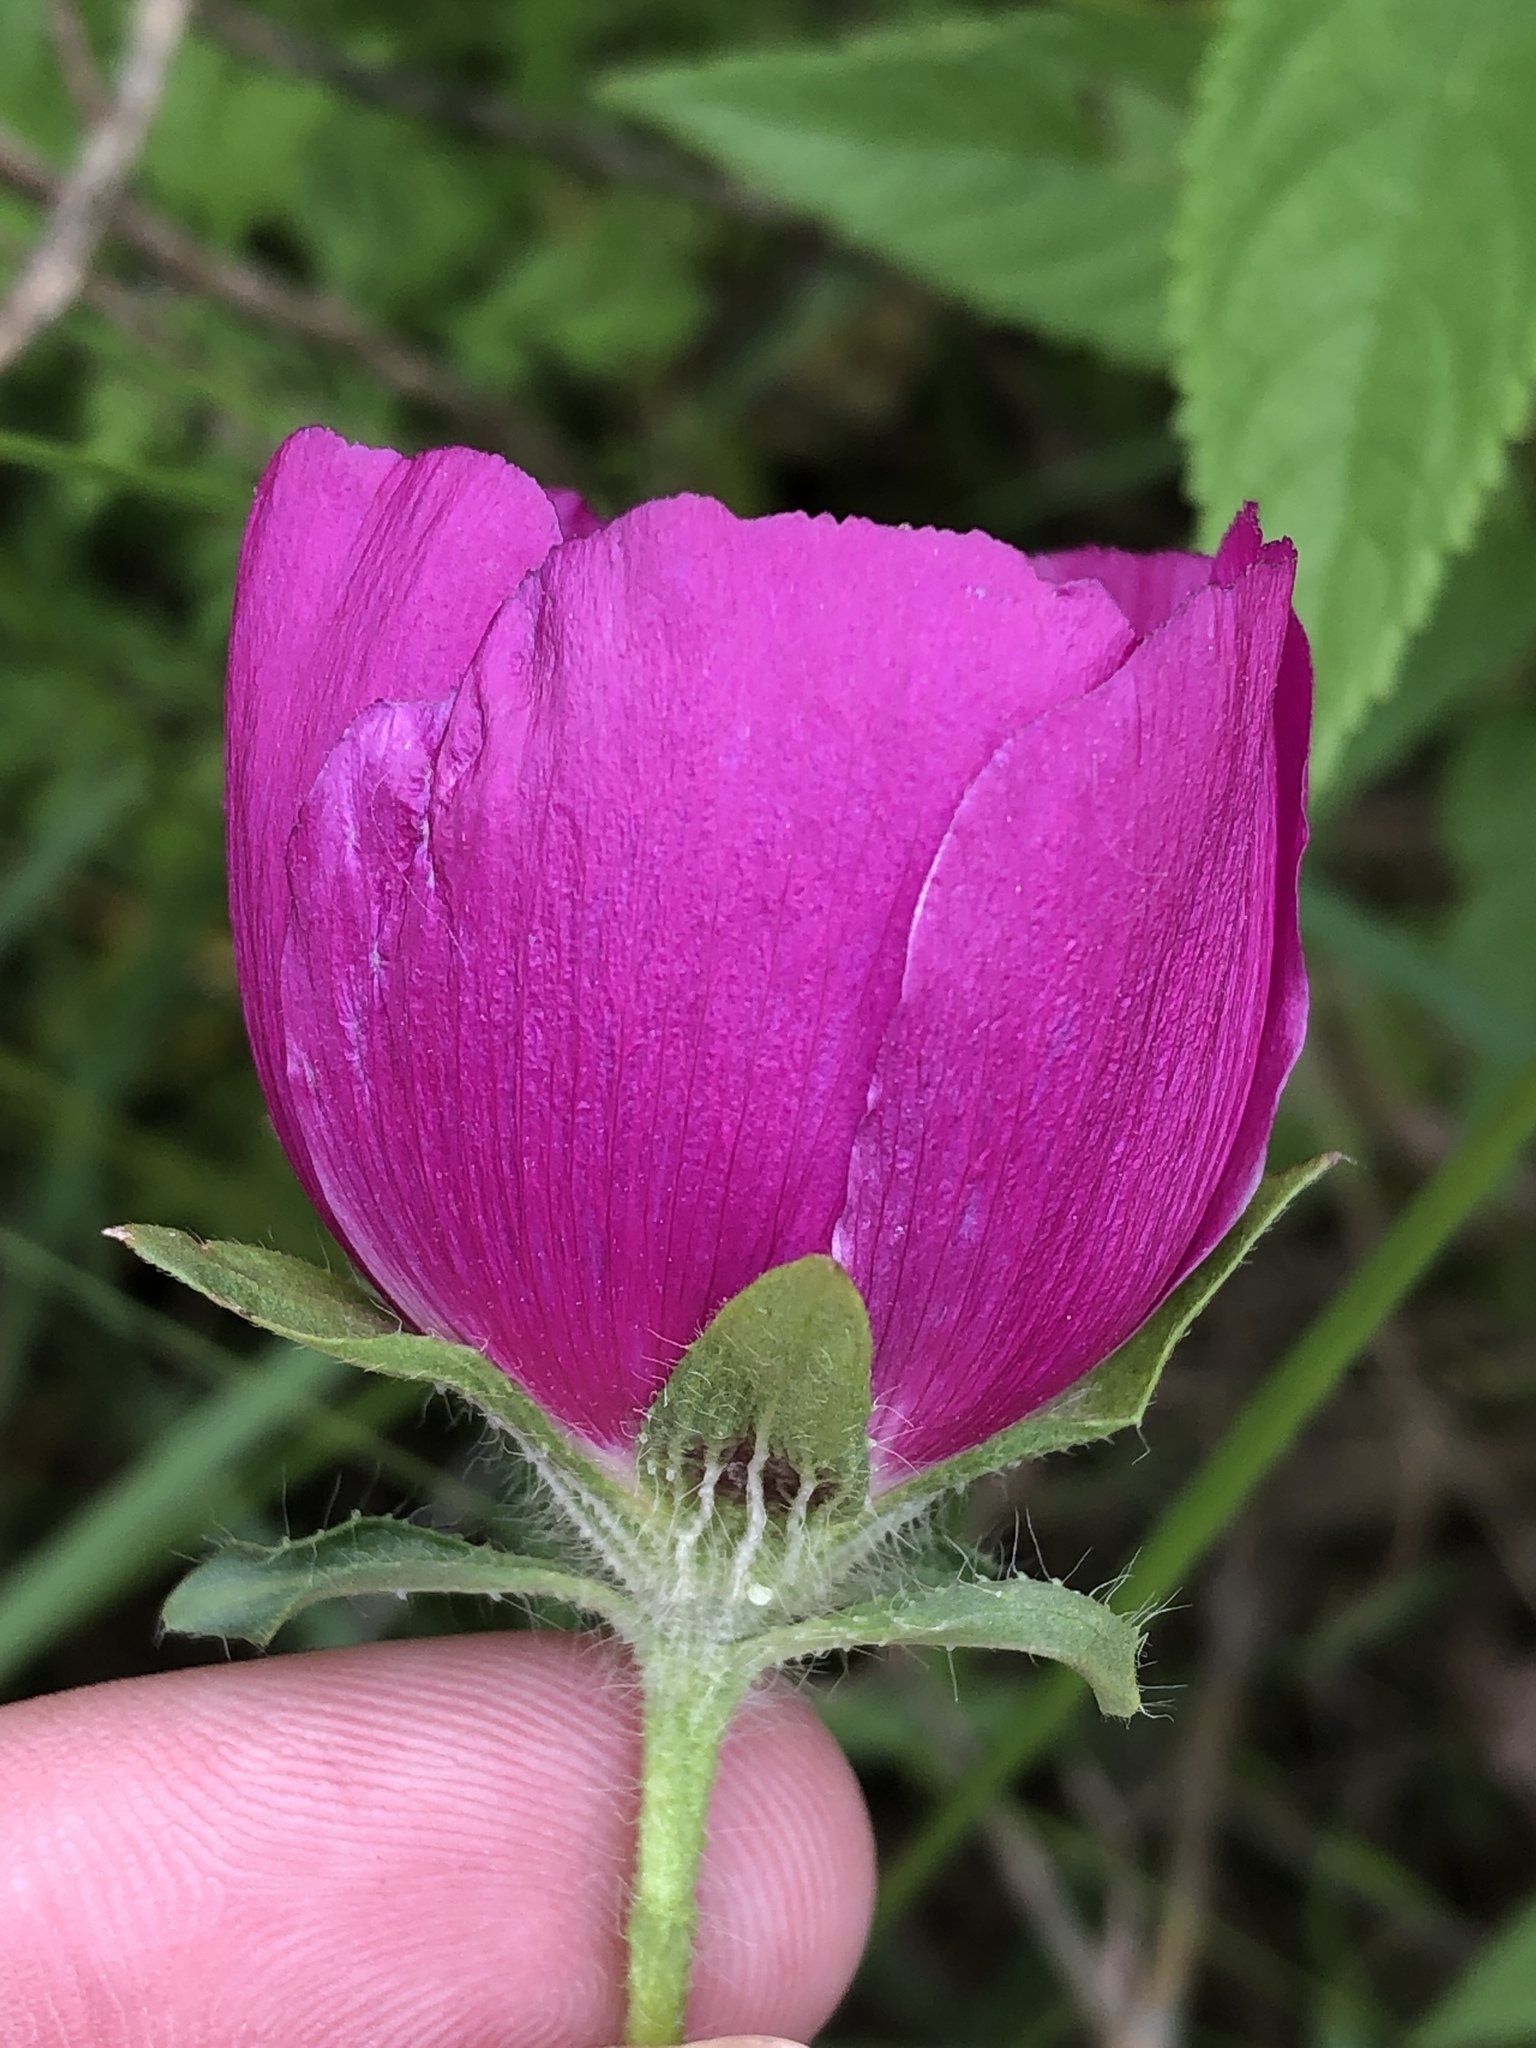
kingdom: Plantae
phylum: Tracheophyta
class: Magnoliopsida
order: Malvales
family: Malvaceae
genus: Callirhoe
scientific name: Callirhoe involucrata
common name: Purple poppy-mallow
